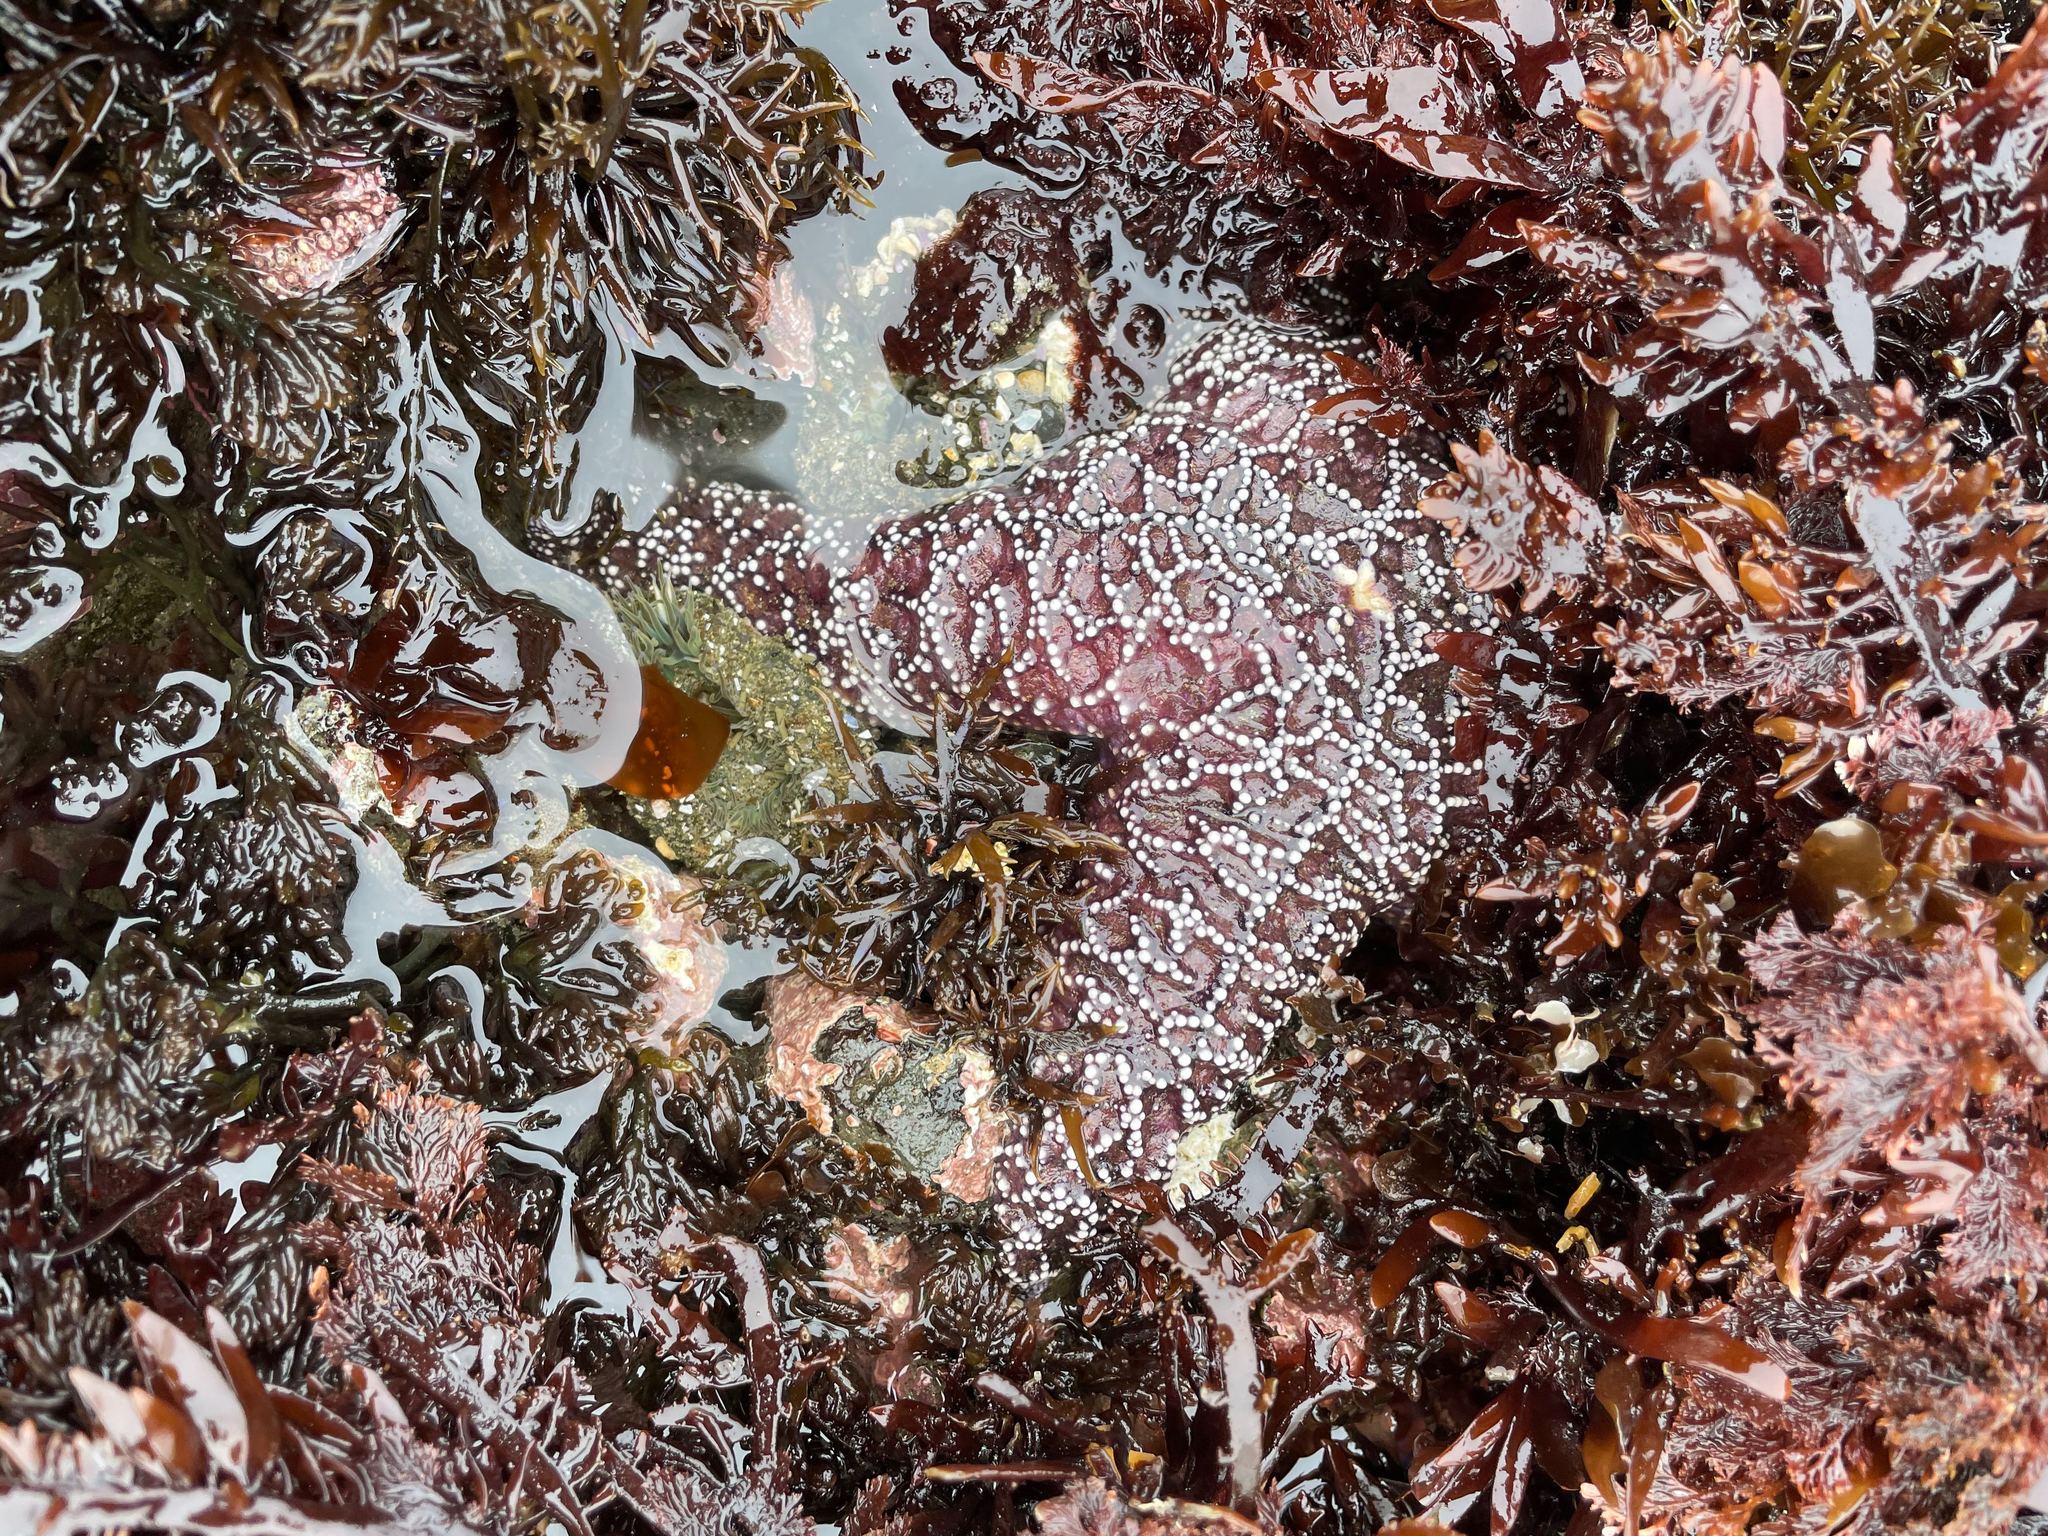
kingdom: Animalia
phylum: Echinodermata
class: Asteroidea
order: Forcipulatida
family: Asteriidae
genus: Pisaster
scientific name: Pisaster ochraceus
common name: Ochre stars
